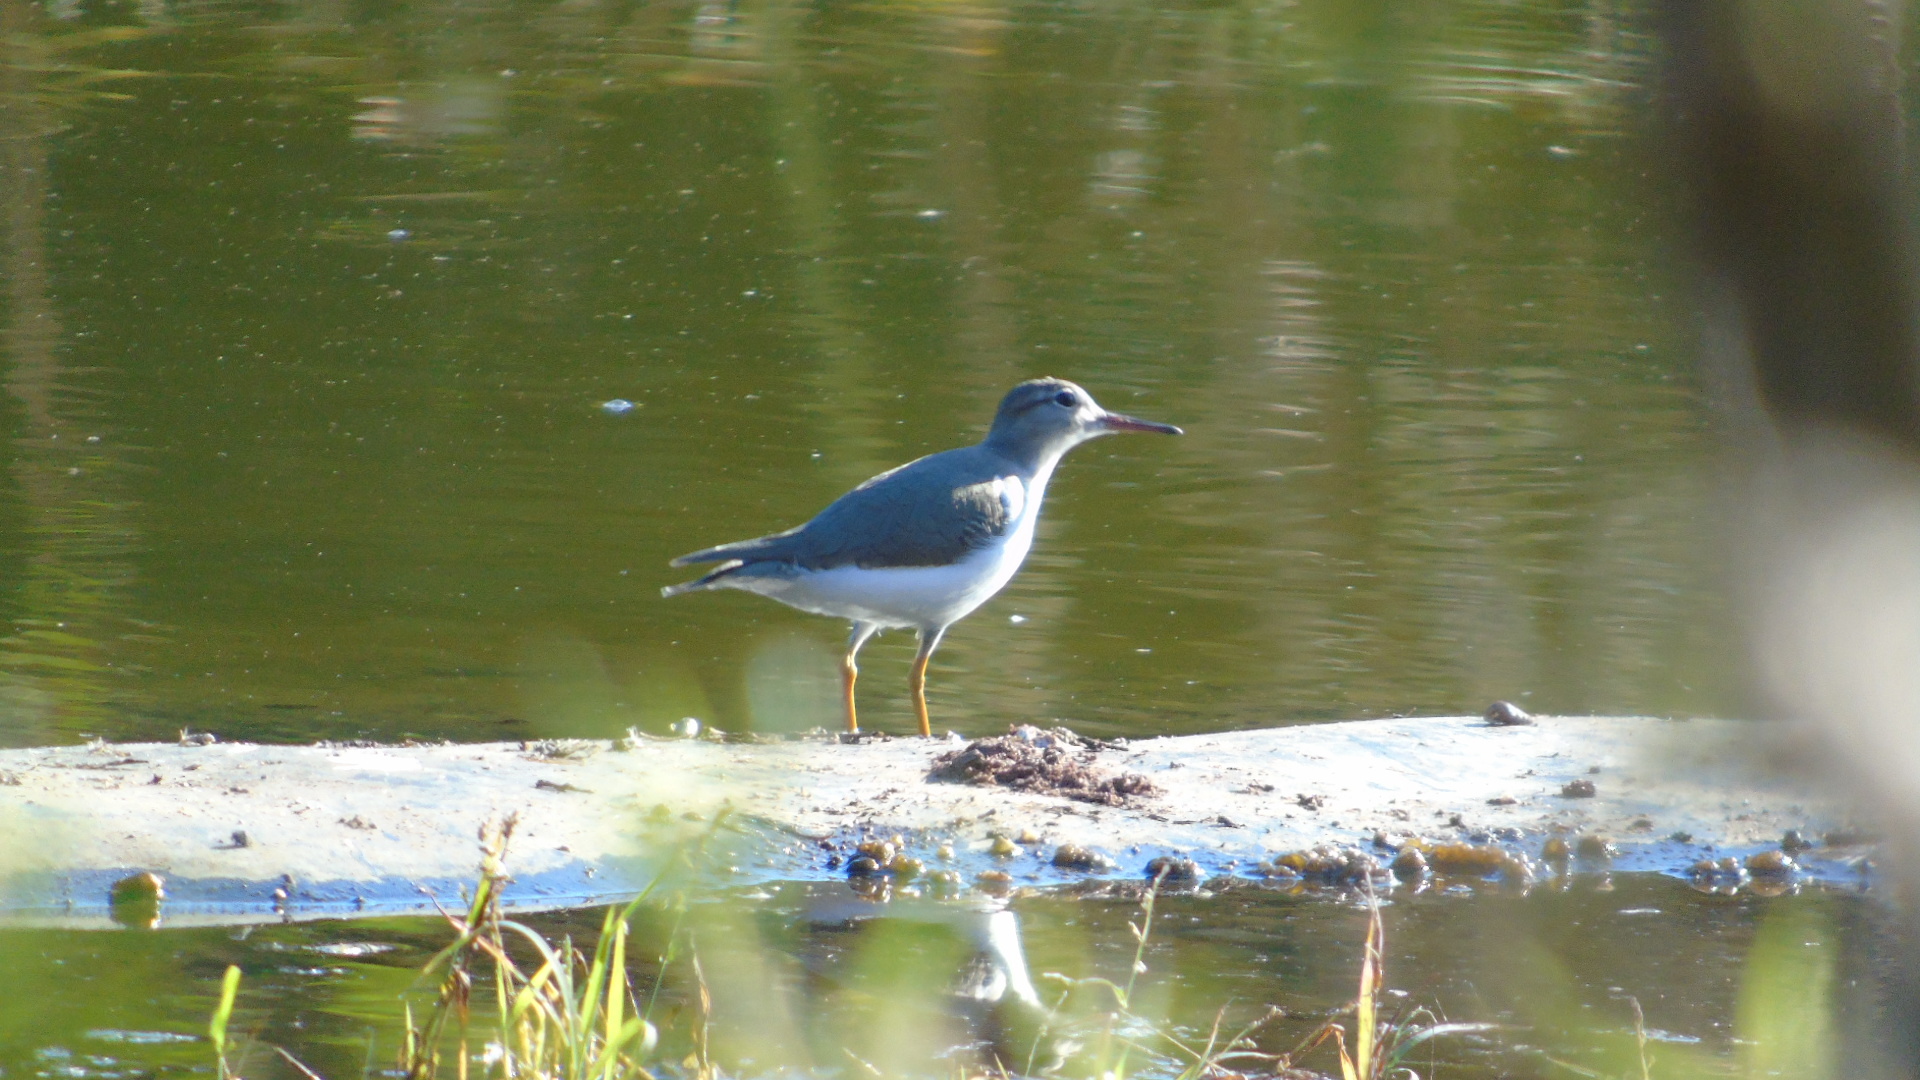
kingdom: Animalia
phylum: Chordata
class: Aves
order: Charadriiformes
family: Scolopacidae
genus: Actitis
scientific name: Actitis macularius
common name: Spotted sandpiper
